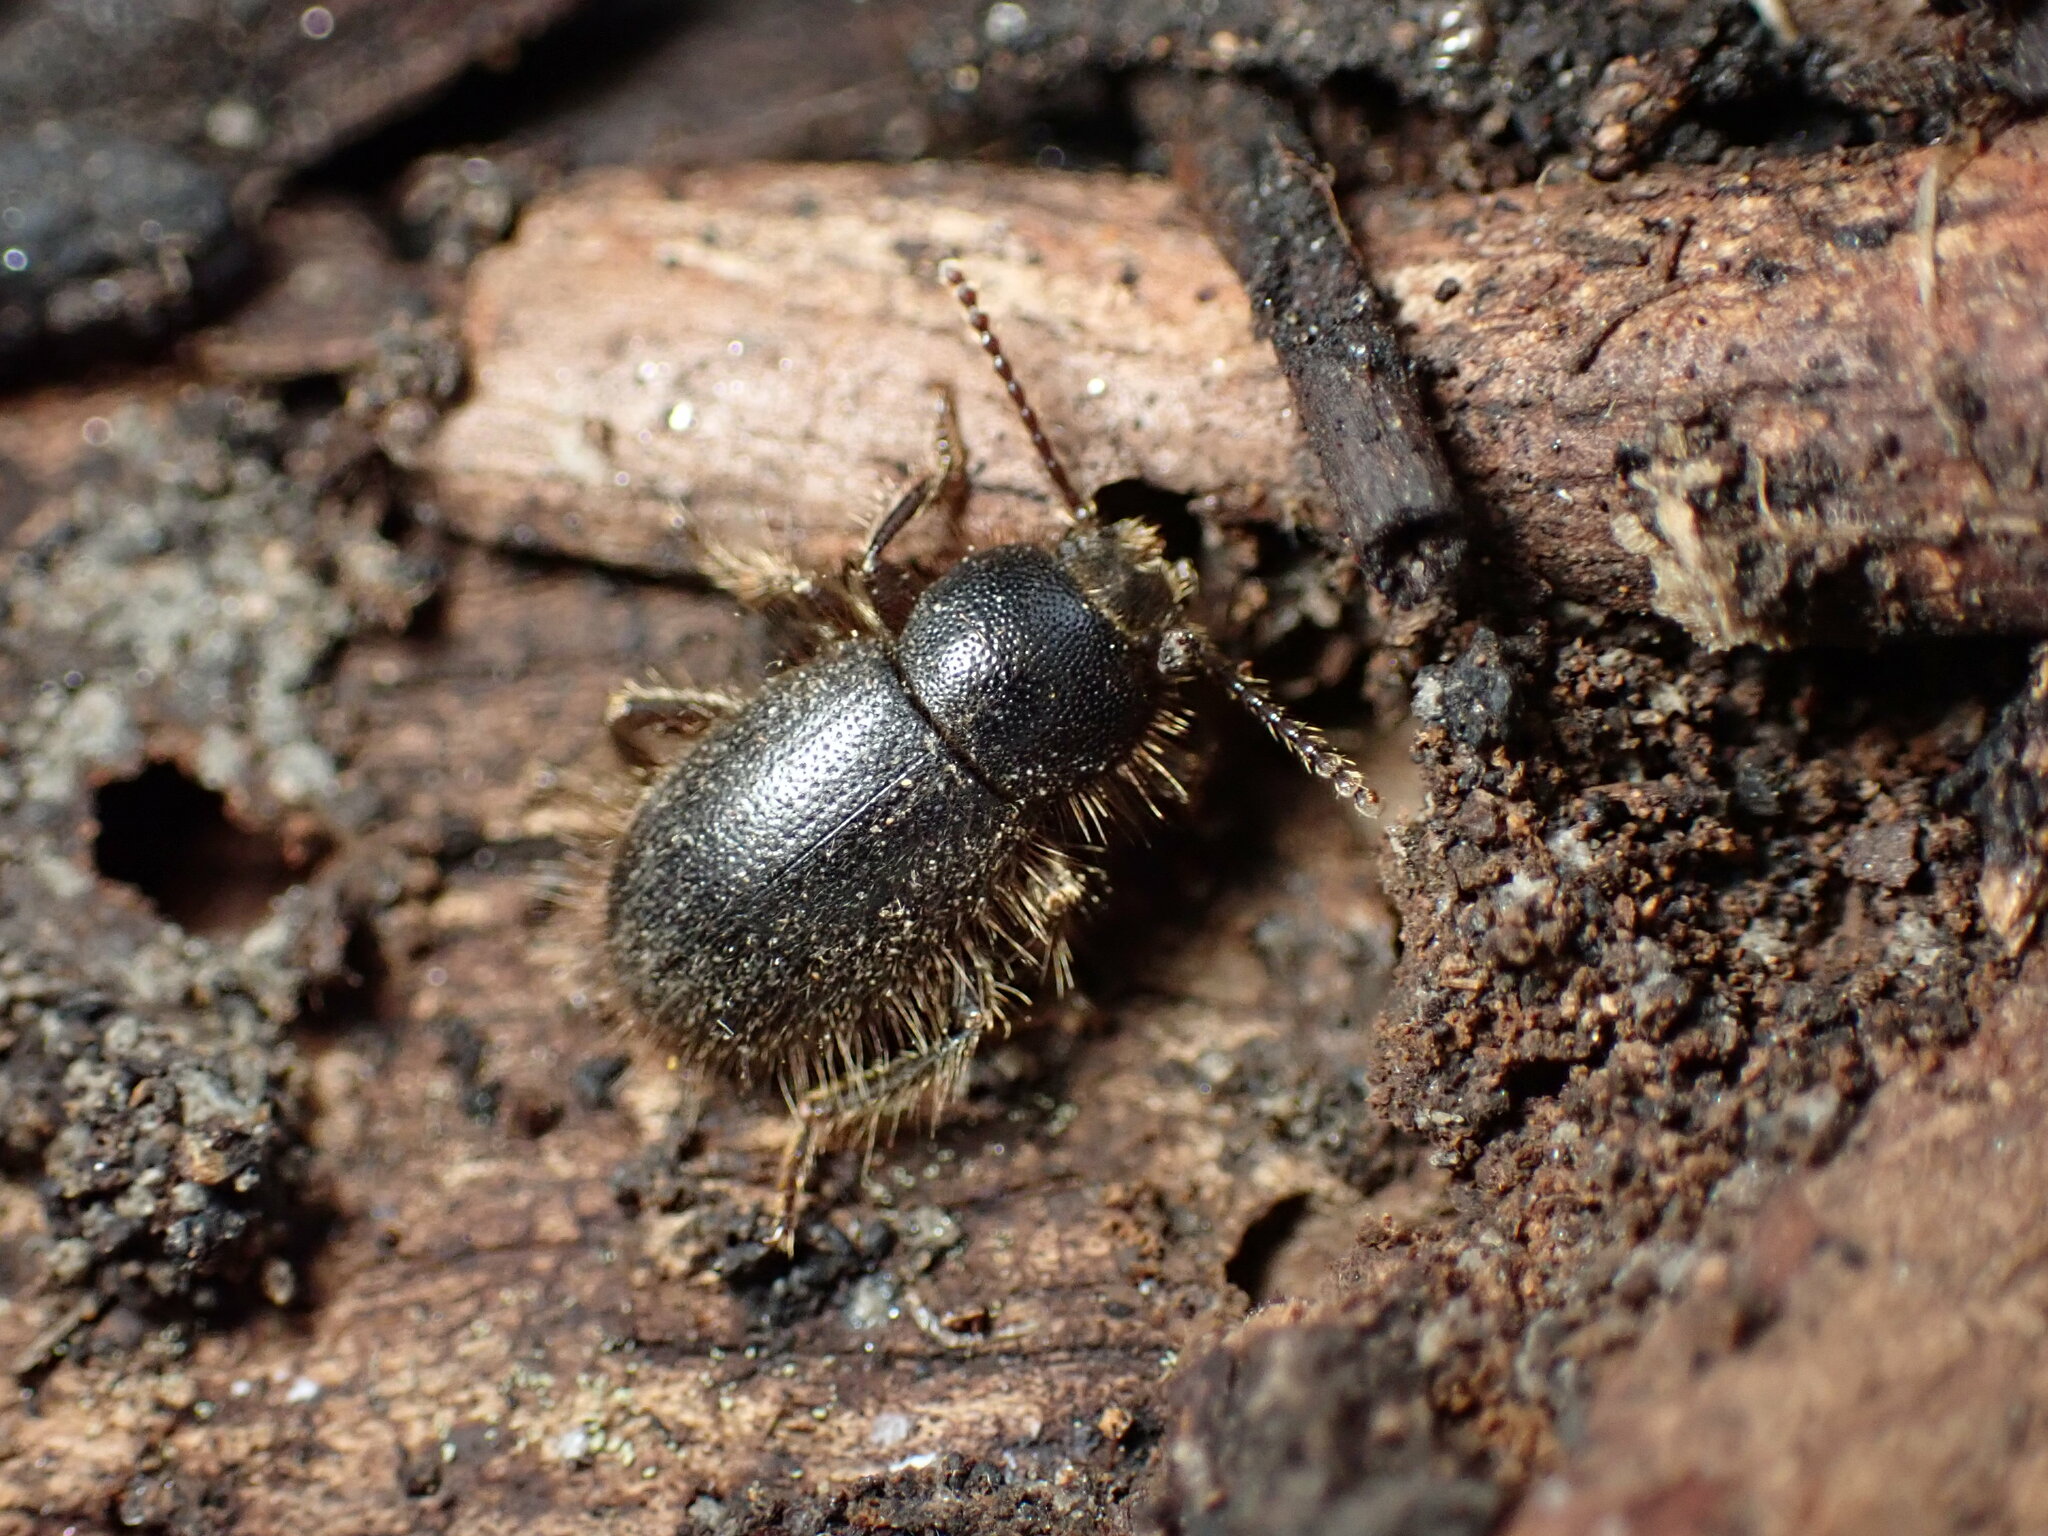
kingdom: Animalia
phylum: Arthropoda
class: Insecta
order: Coleoptera
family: Tenebrionidae
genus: Eleodes
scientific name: Eleodes littoralis
